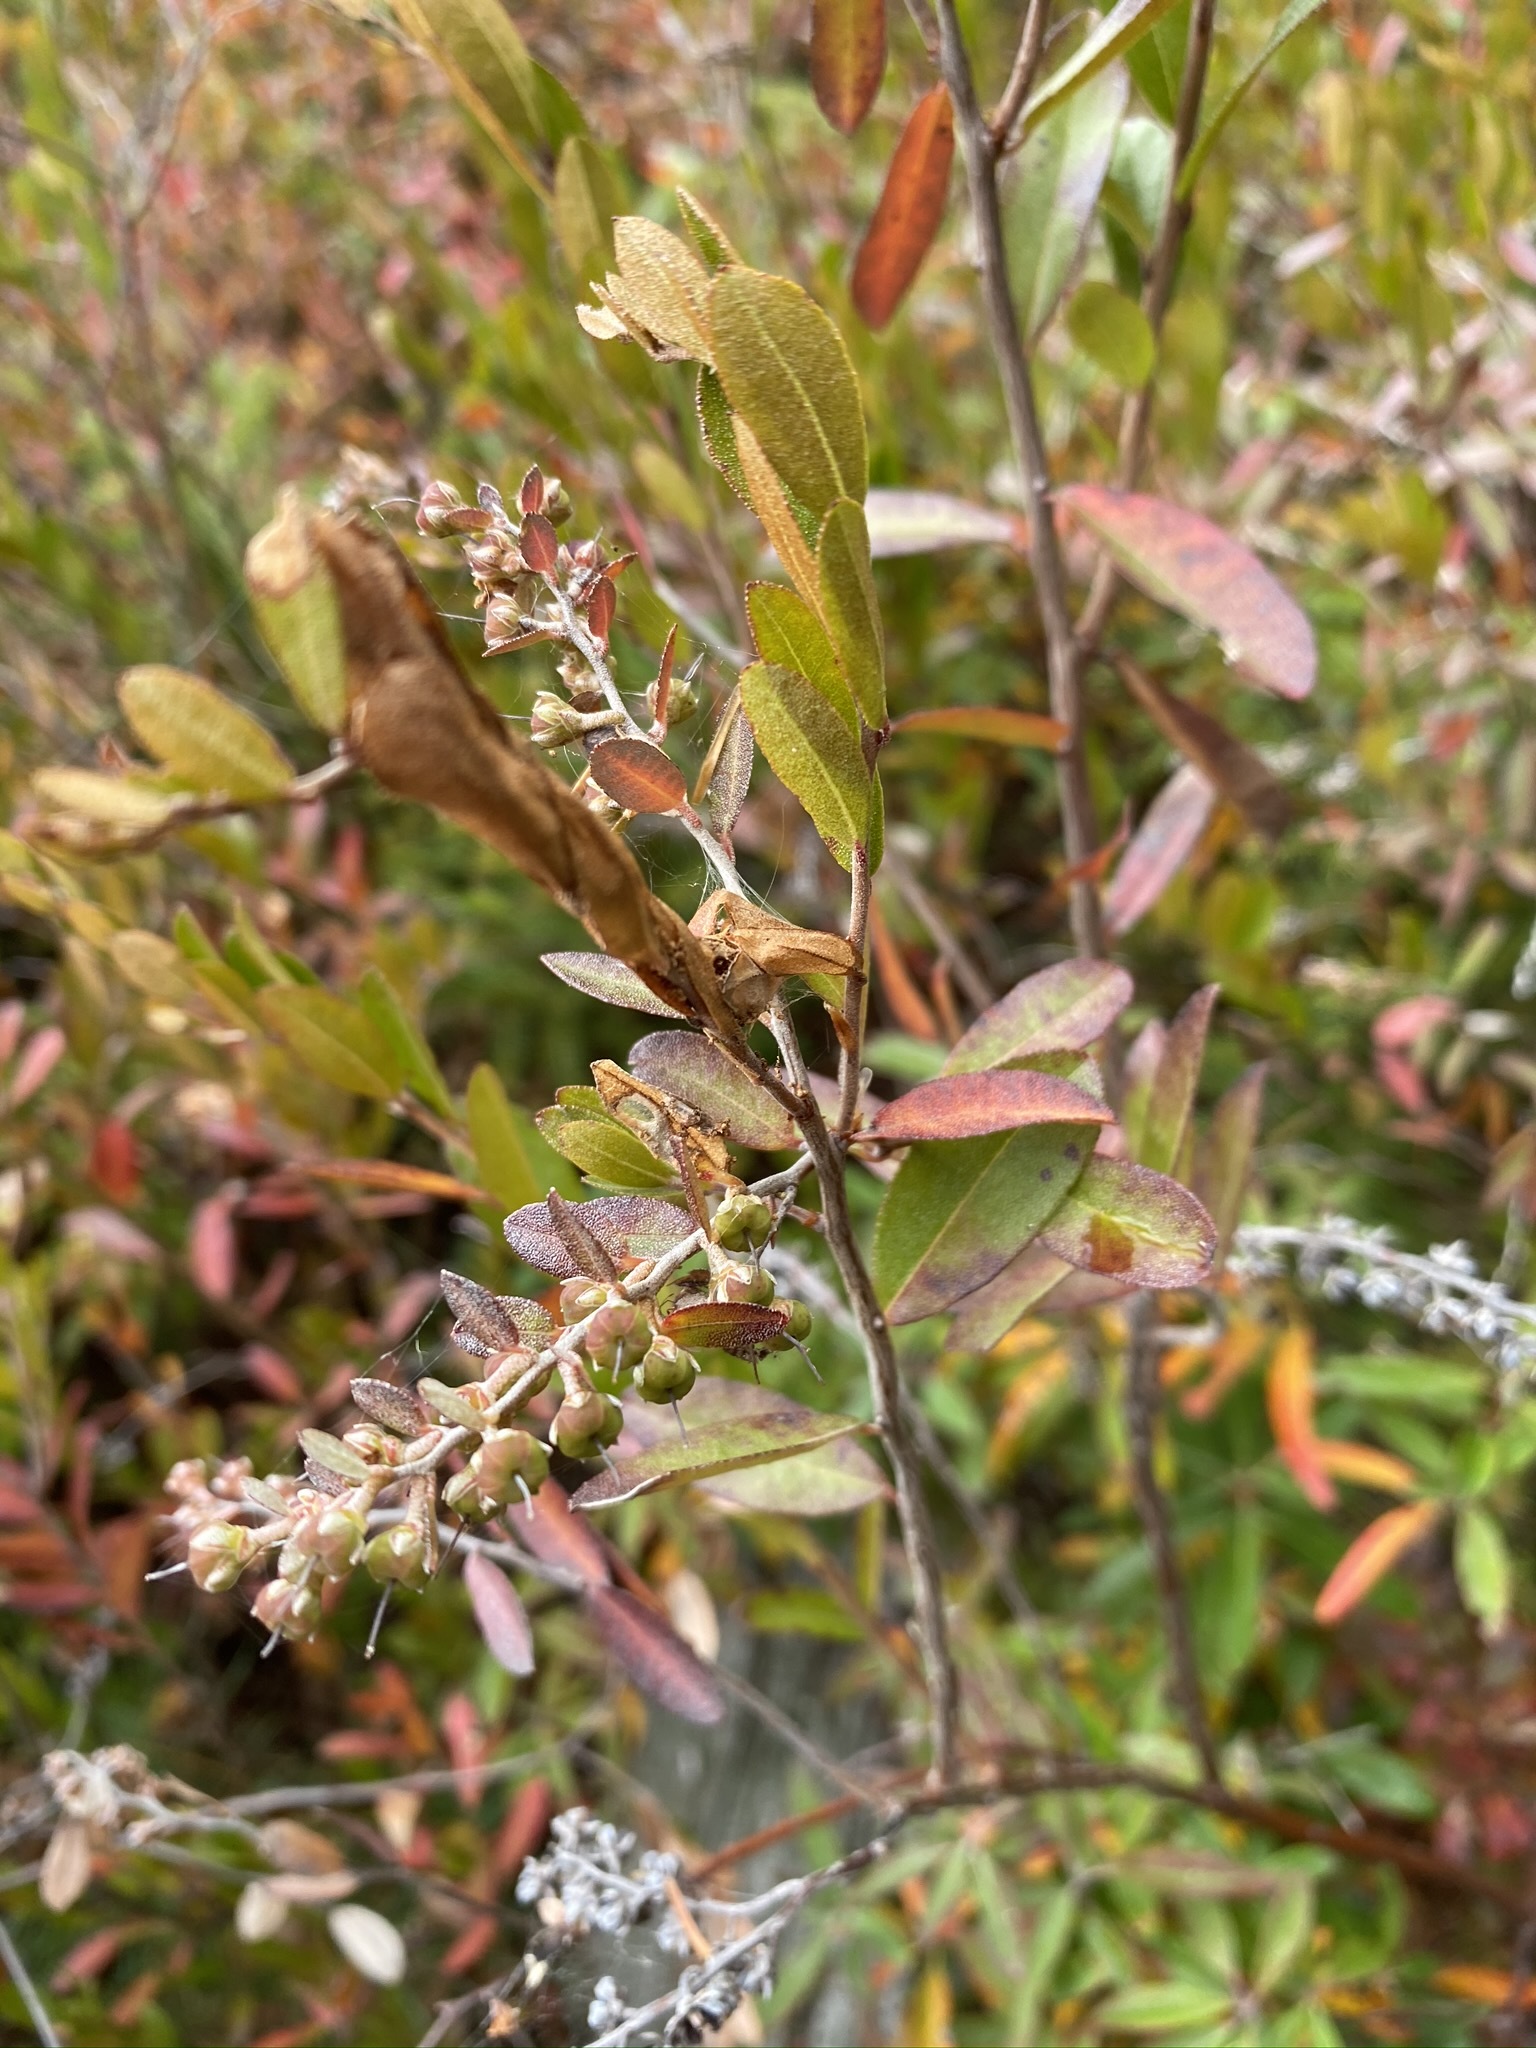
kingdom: Plantae
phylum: Tracheophyta
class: Magnoliopsida
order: Ericales
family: Ericaceae
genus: Chamaedaphne
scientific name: Chamaedaphne calyculata
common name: Leatherleaf
